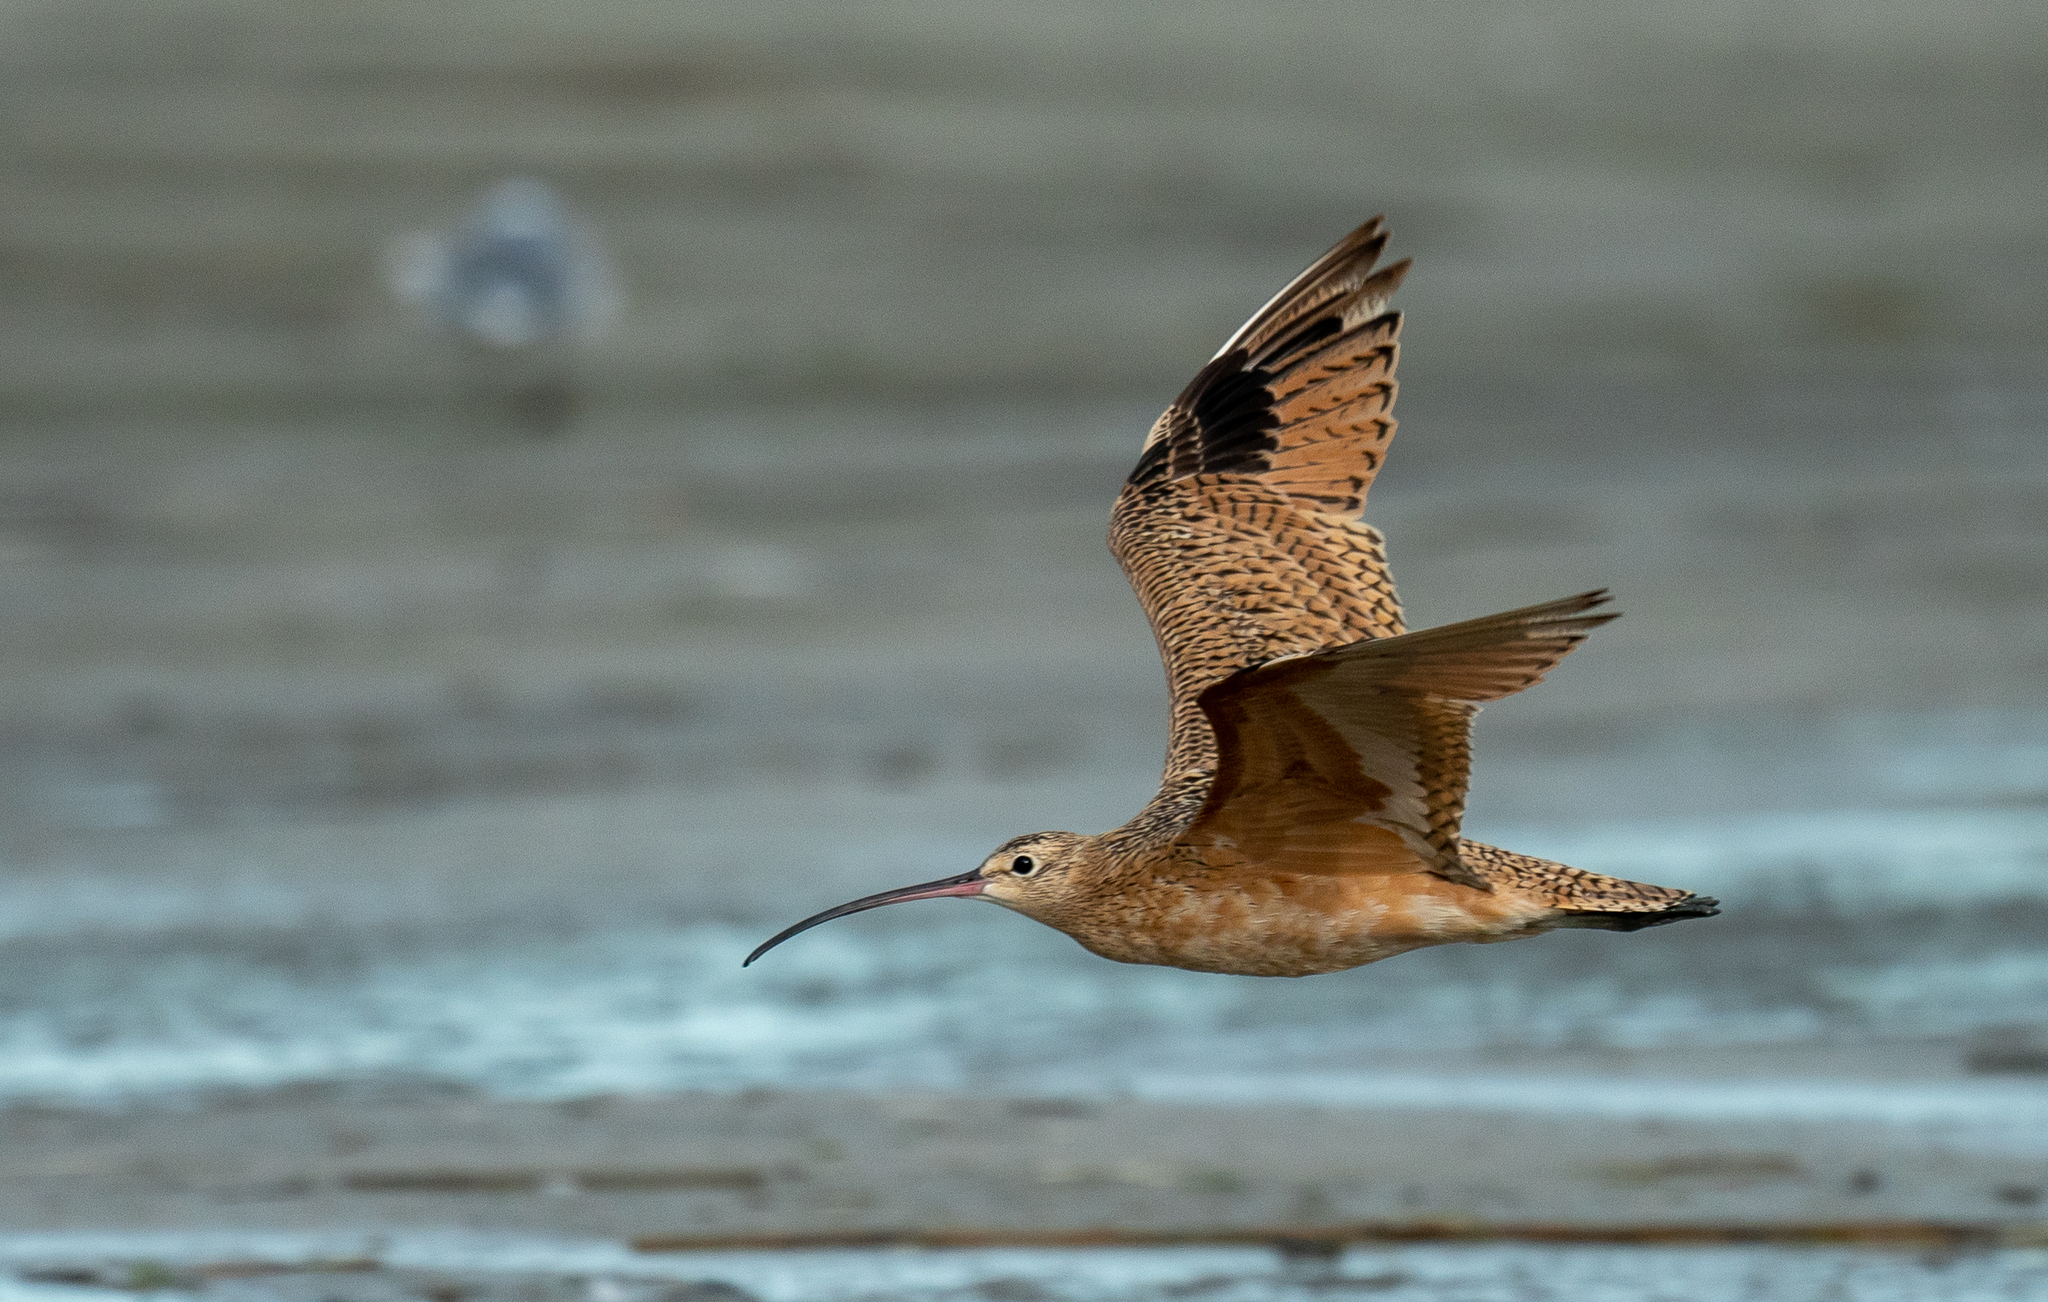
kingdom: Animalia
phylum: Chordata
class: Aves
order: Charadriiformes
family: Scolopacidae
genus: Numenius
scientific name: Numenius americanus
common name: Long-billed curlew
